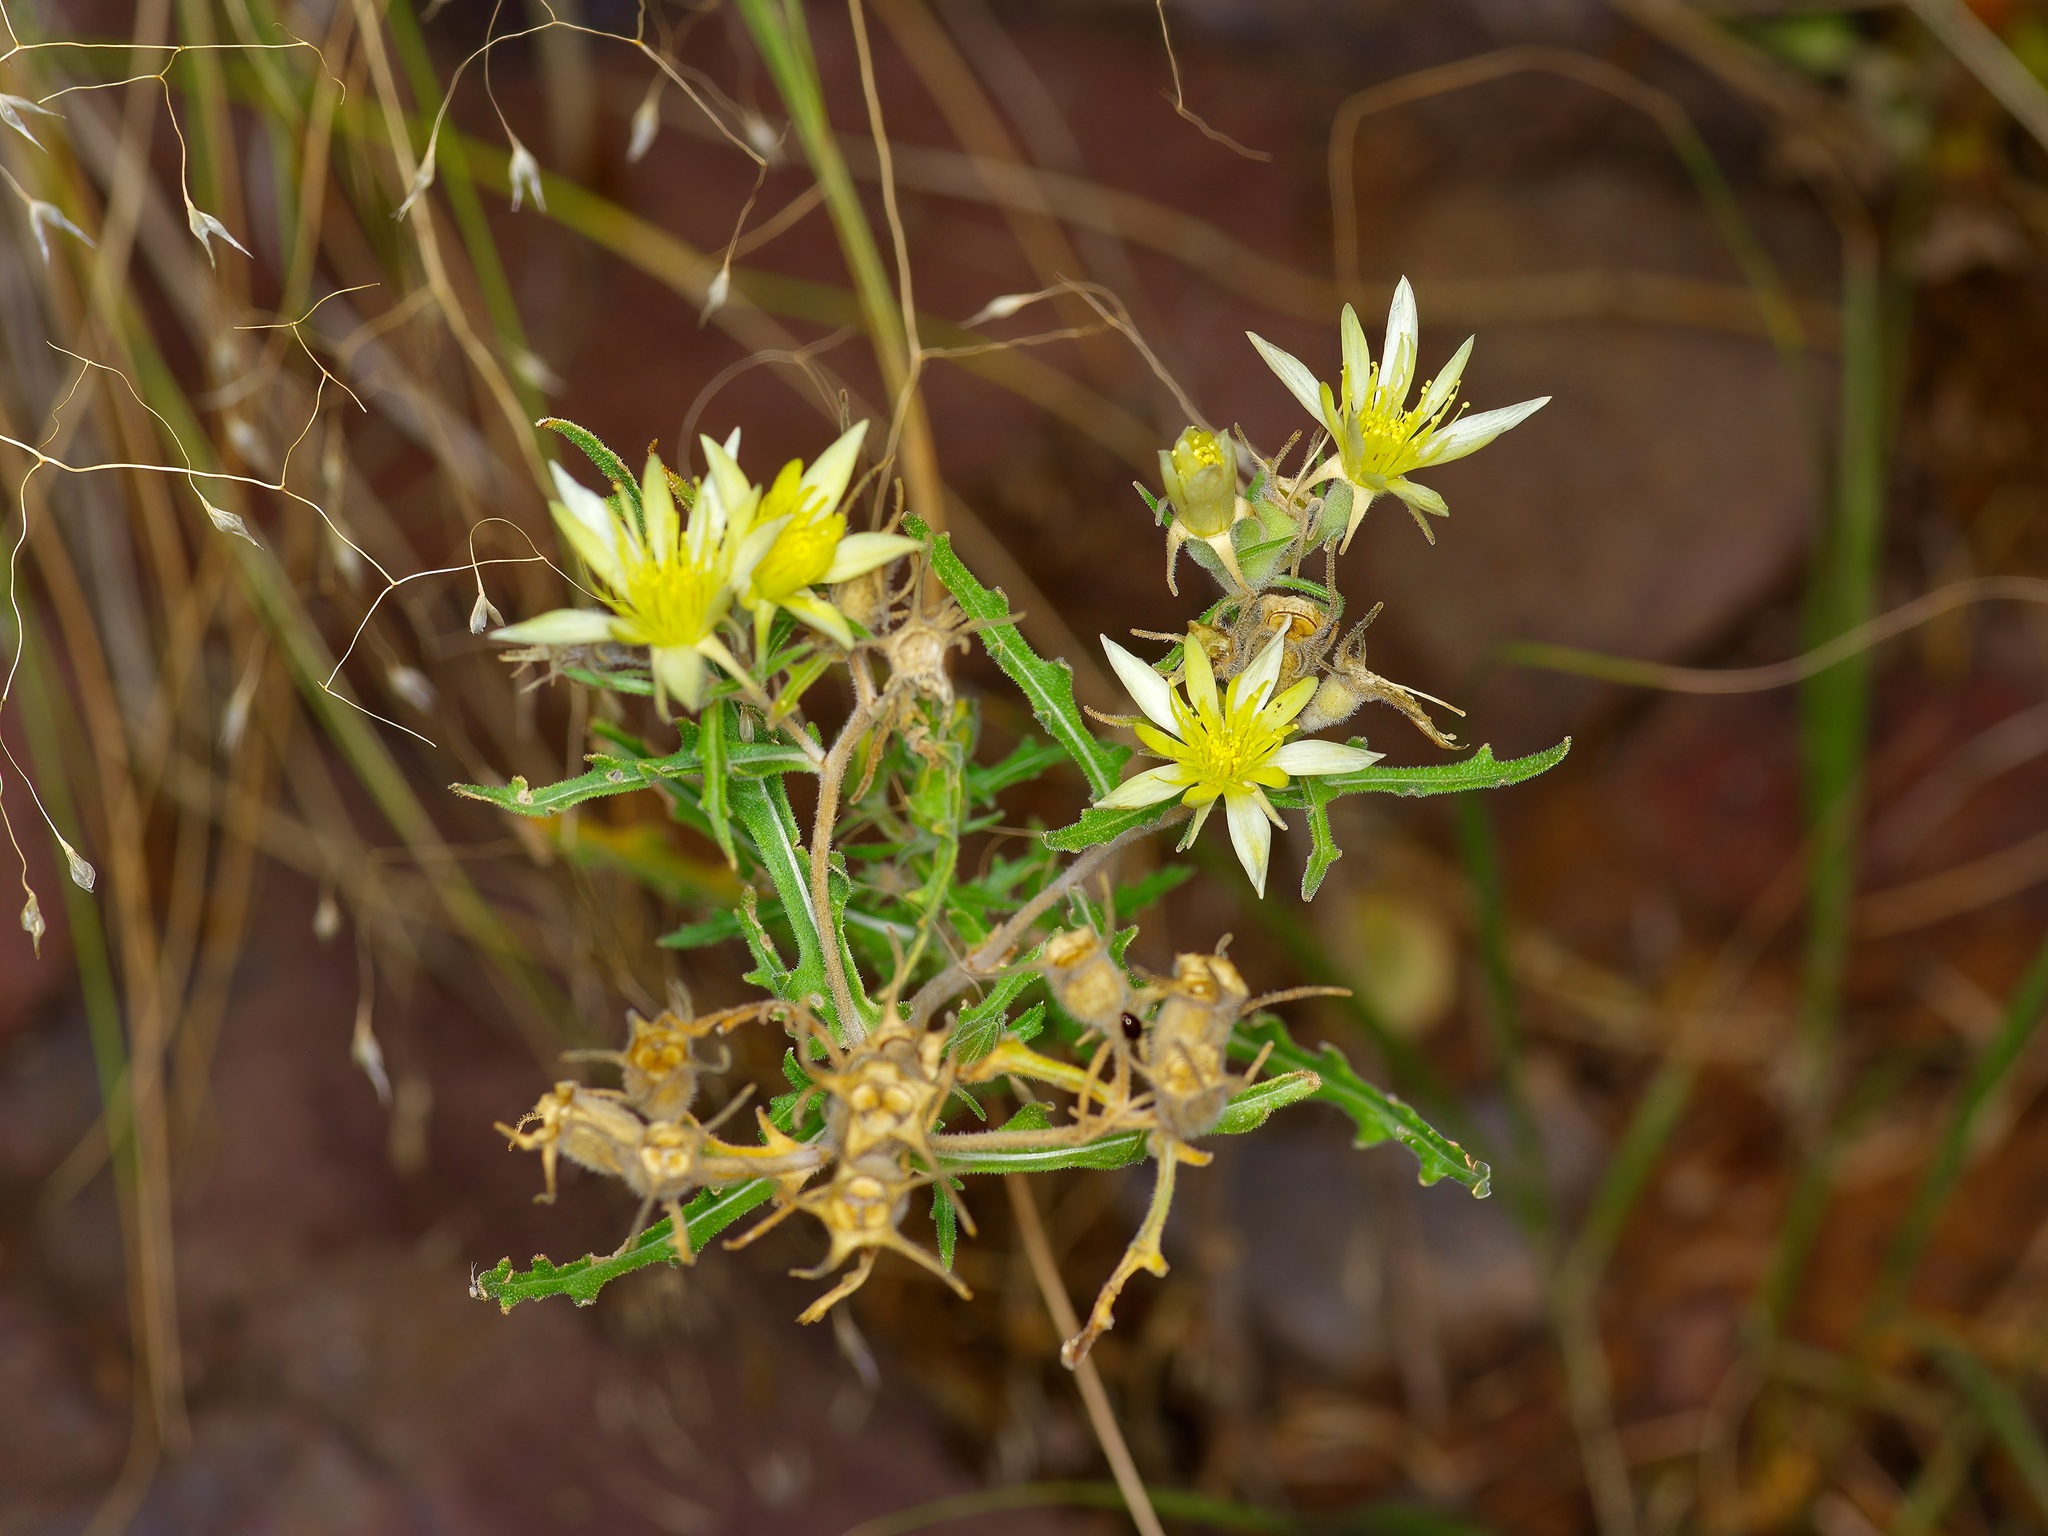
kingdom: Plantae
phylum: Tracheophyta
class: Magnoliopsida
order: Cornales
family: Loasaceae
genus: Mentzelia
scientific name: Mentzelia procera
